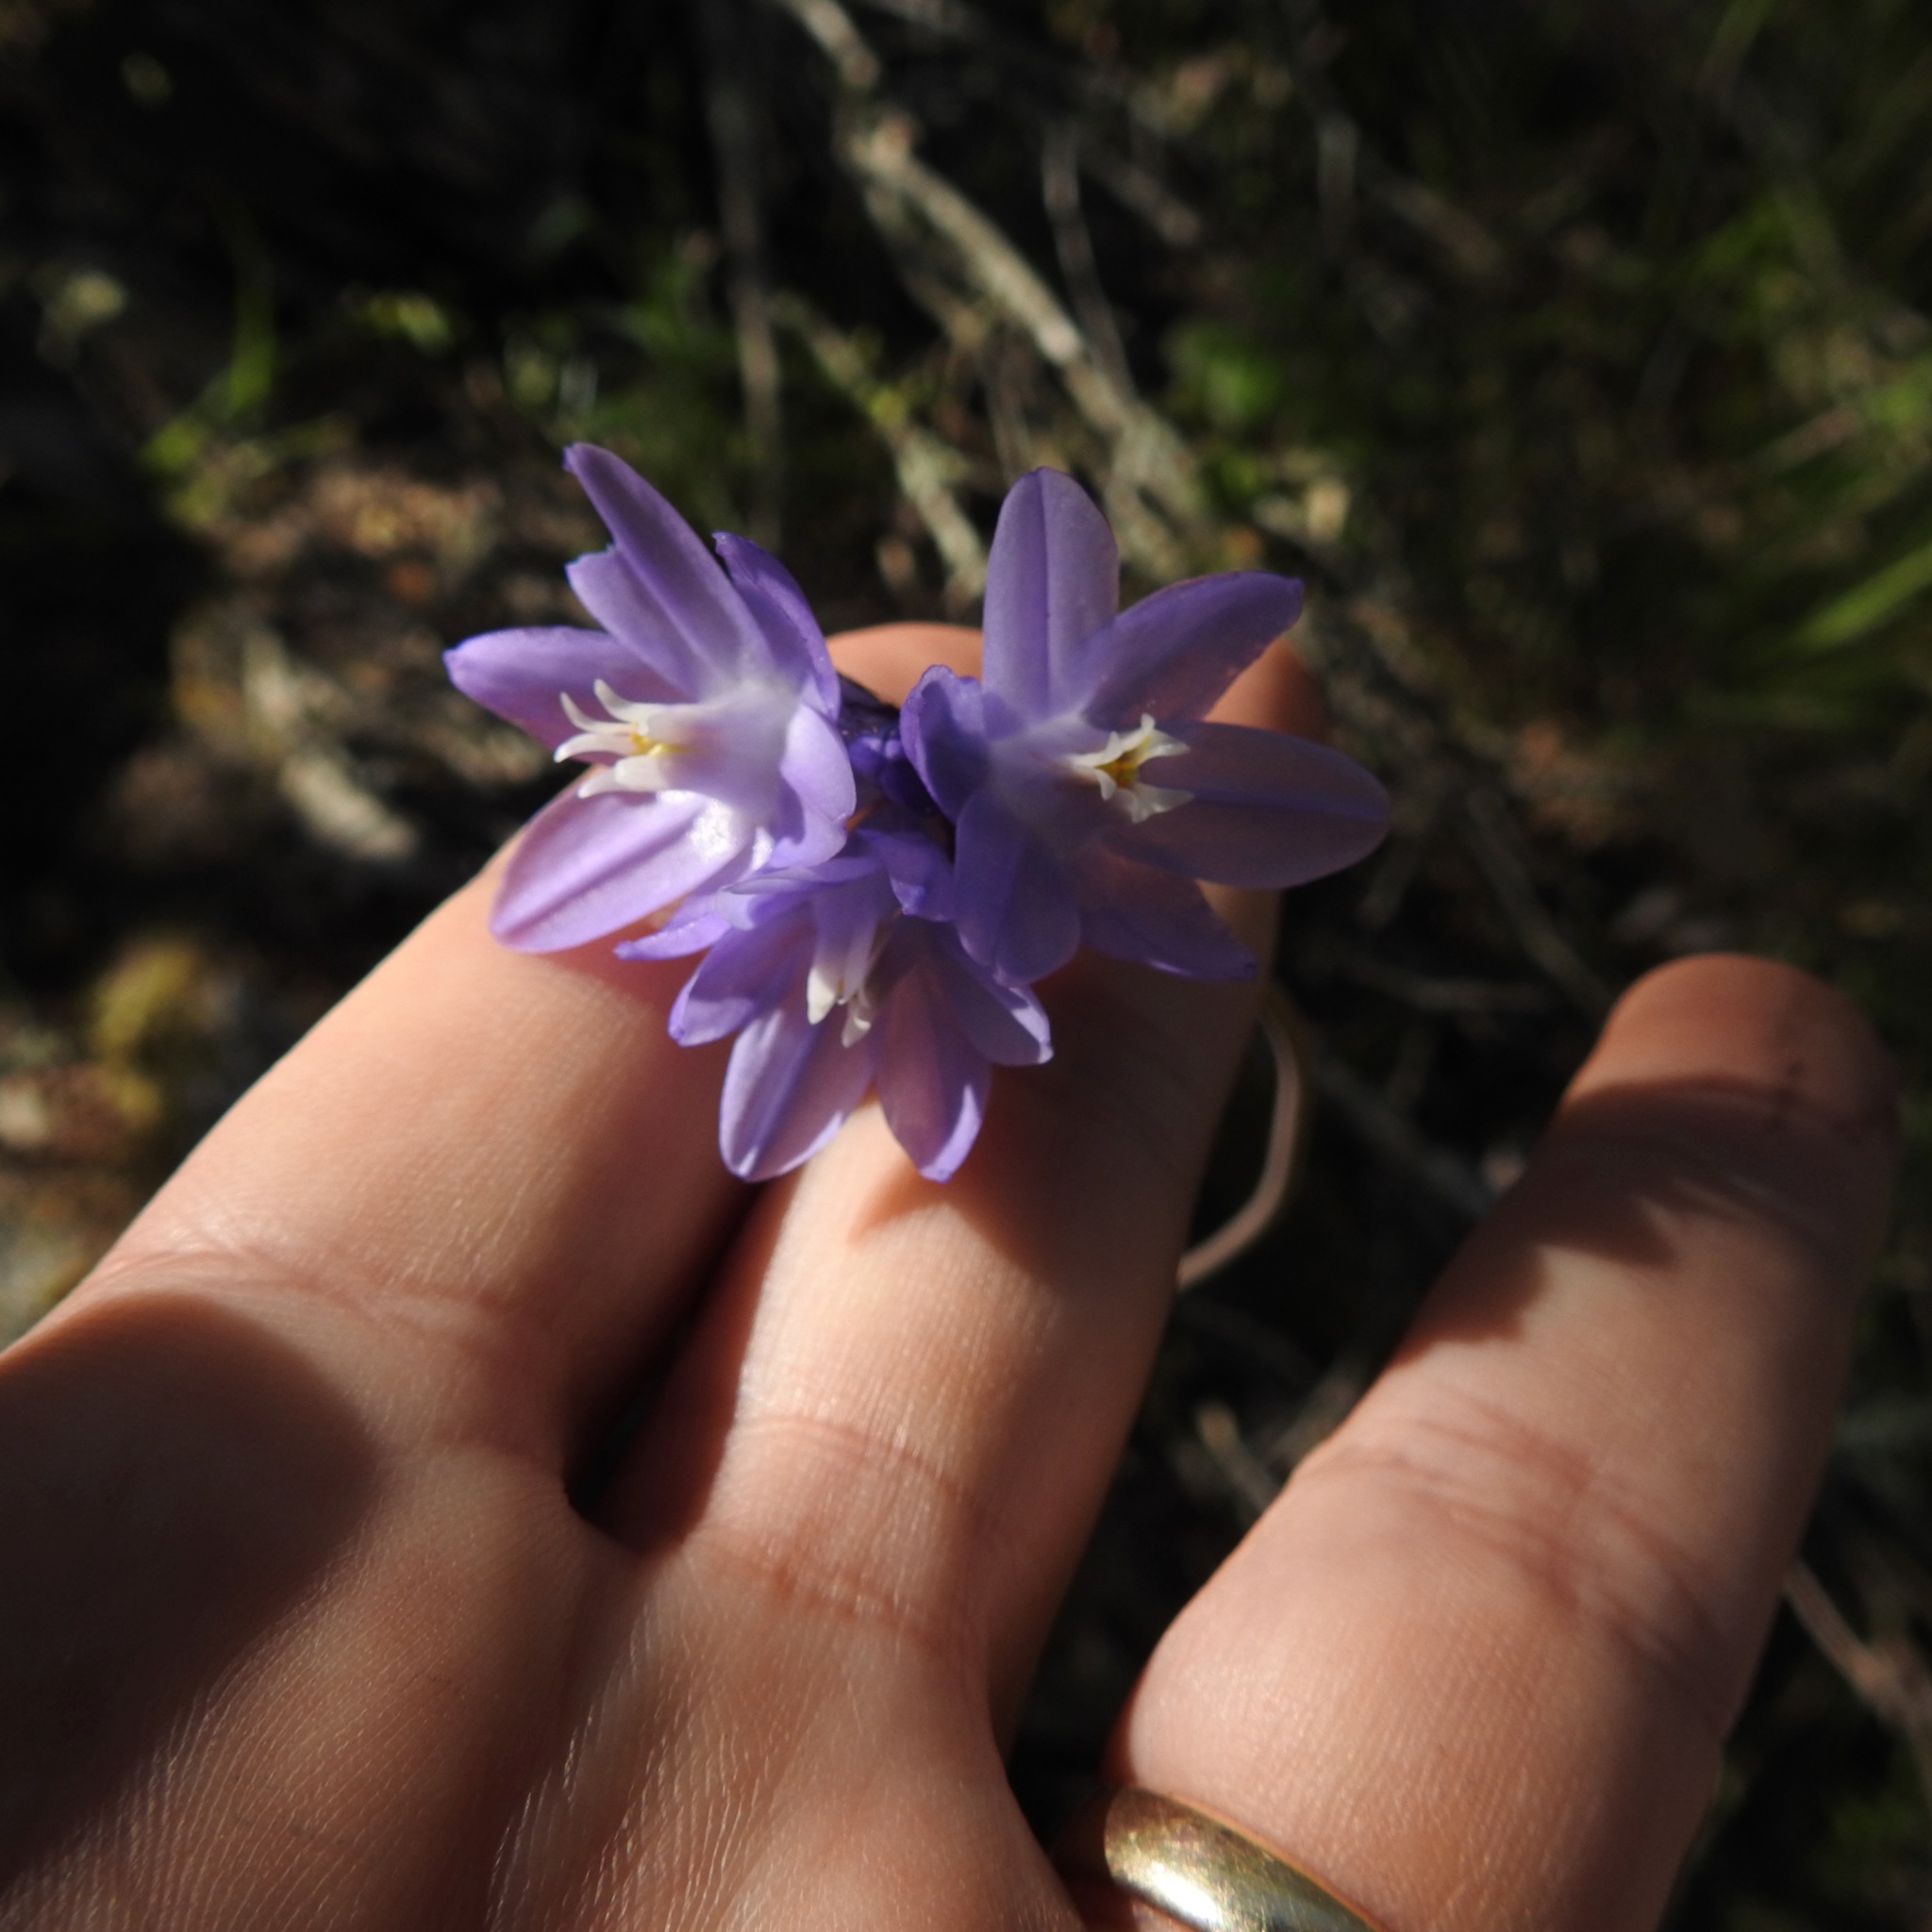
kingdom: Plantae
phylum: Tracheophyta
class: Liliopsida
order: Asparagales
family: Asparagaceae
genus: Dipterostemon
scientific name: Dipterostemon capitatus
